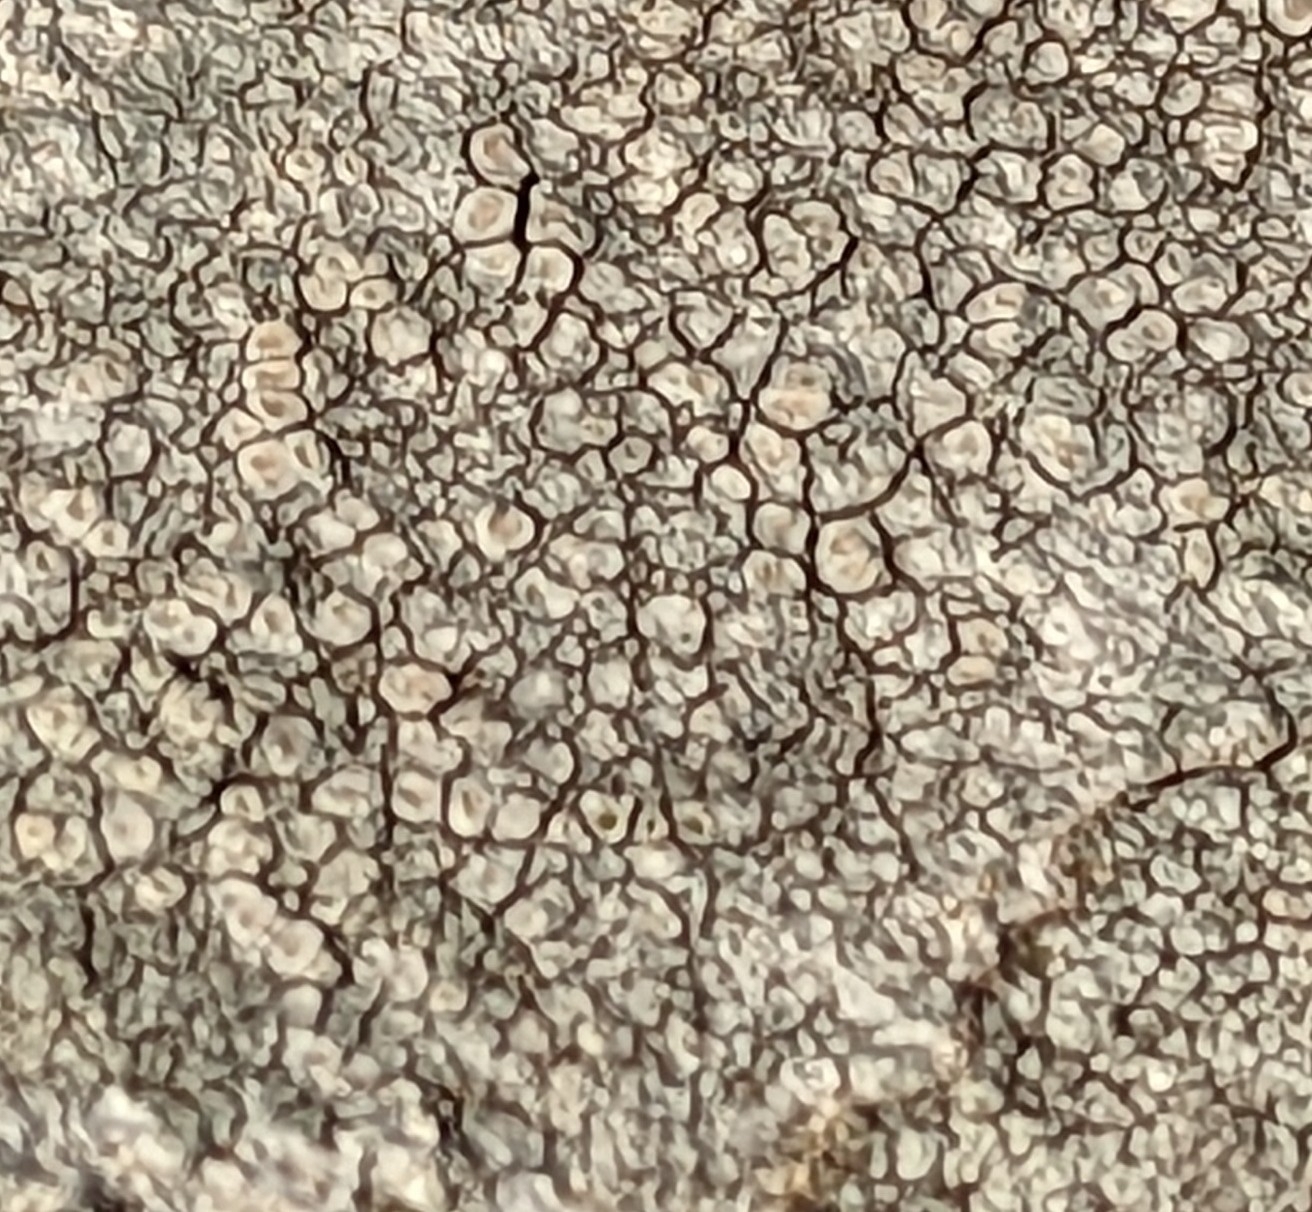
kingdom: Fungi
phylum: Ascomycota
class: Lecanoromycetes
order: Pertusariales
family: Ochrolechiaceae
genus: Ochrolechia
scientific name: Ochrolechia parella
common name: Crab's eye lichen
